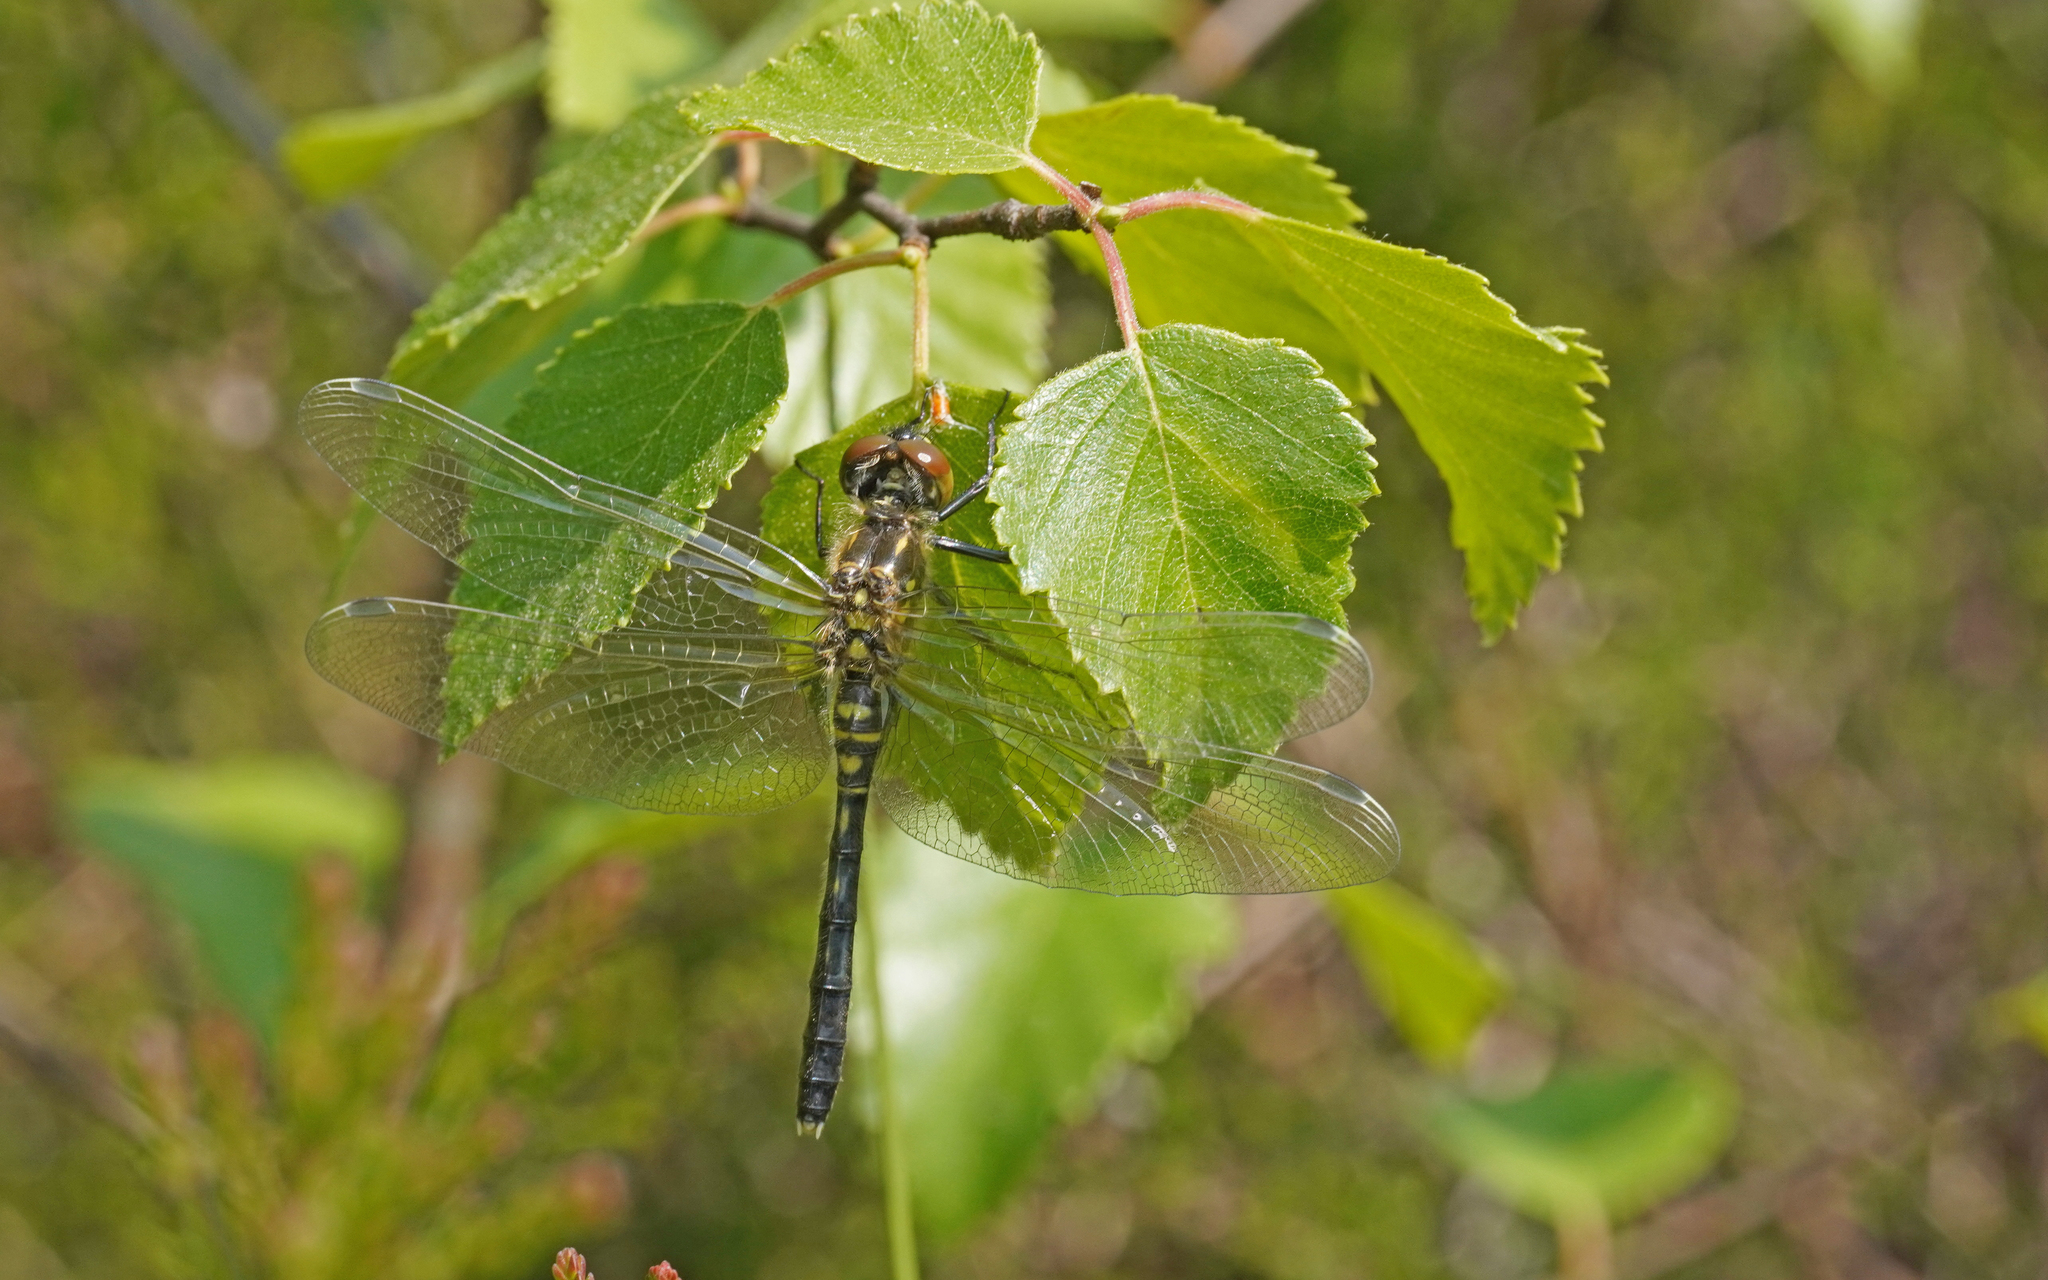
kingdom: Animalia
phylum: Arthropoda
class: Insecta
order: Odonata
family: Libellulidae
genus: Leucorrhinia
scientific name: Leucorrhinia albifrons
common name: Dark whiteface
